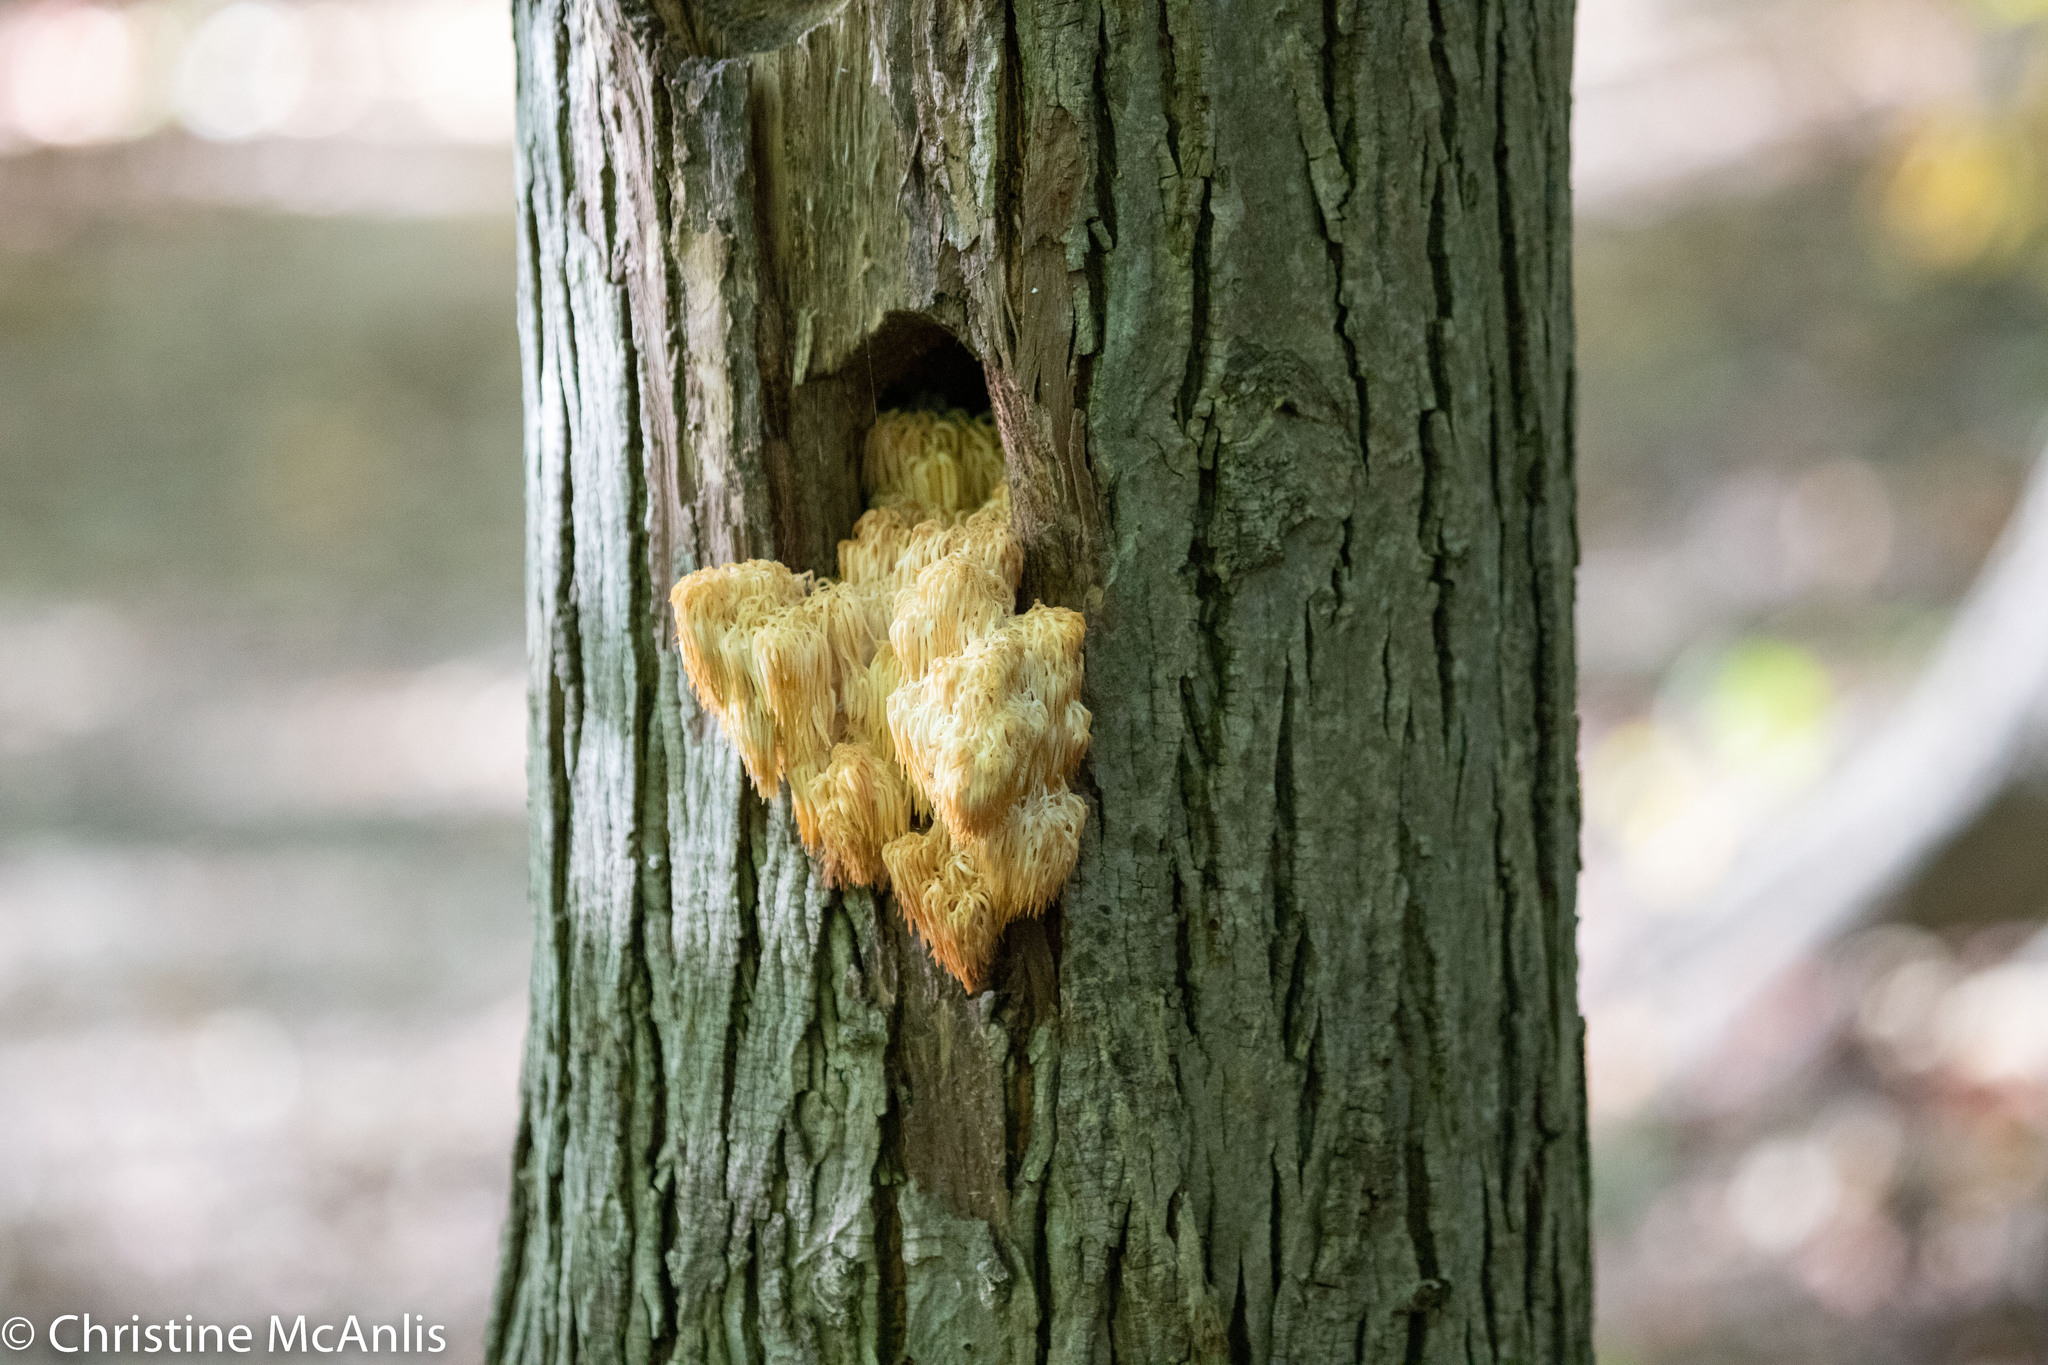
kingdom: Fungi
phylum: Basidiomycota
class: Agaricomycetes
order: Russulales
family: Hericiaceae
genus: Hericium
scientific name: Hericium americanum
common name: Bear's head tooth
